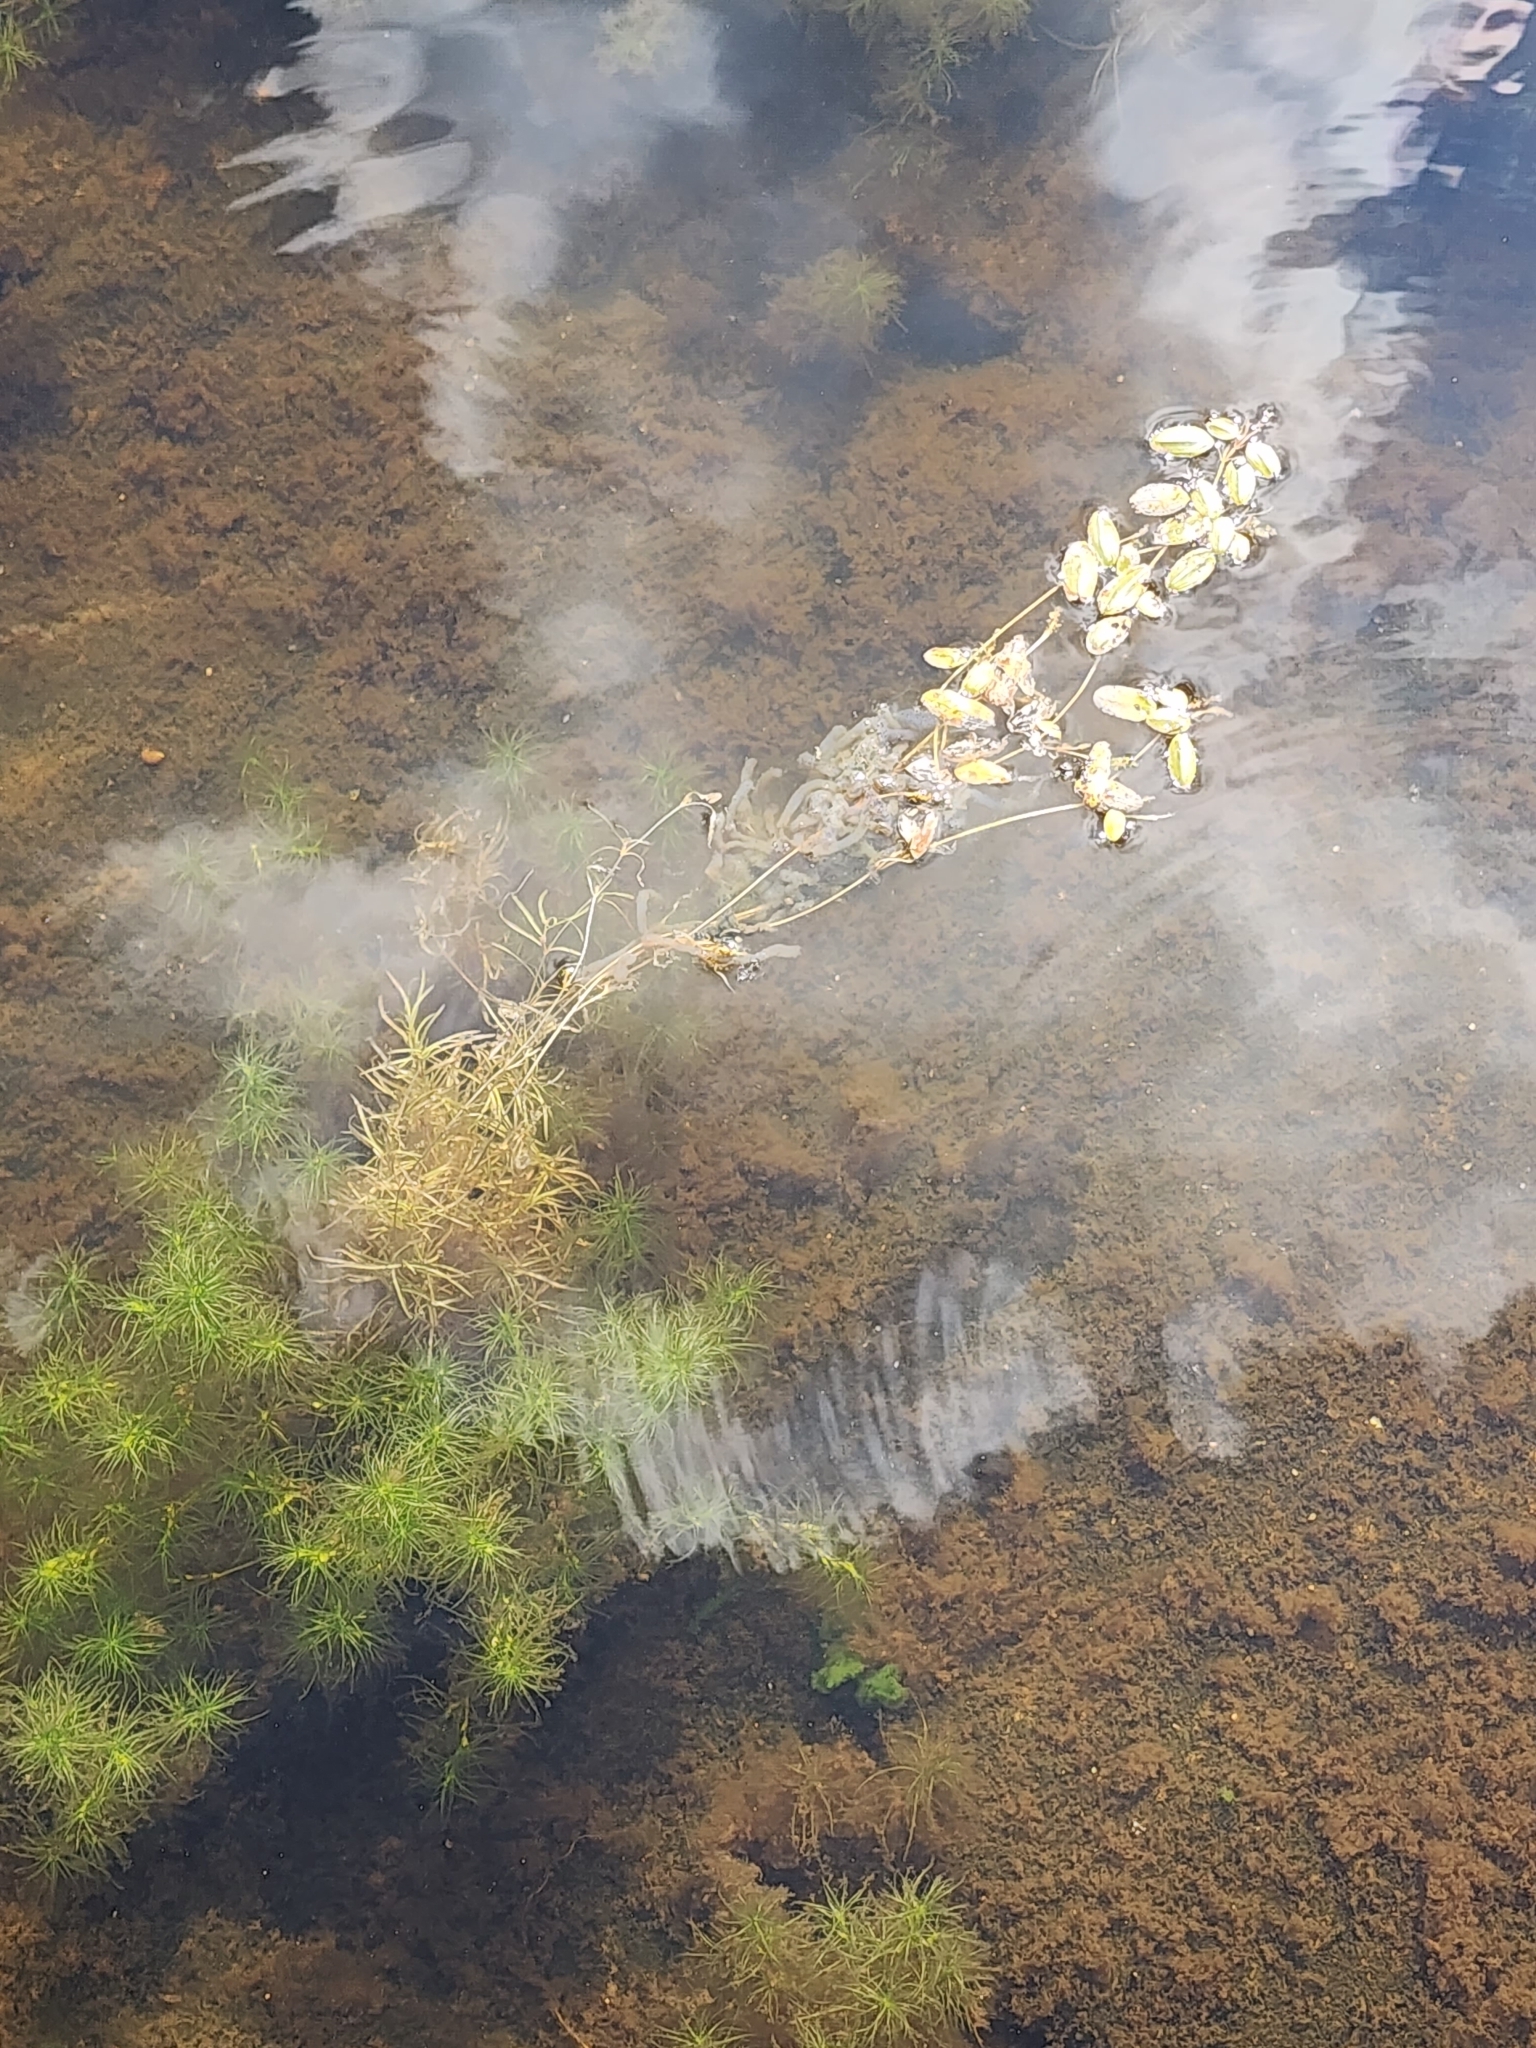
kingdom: Plantae
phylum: Tracheophyta
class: Liliopsida
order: Alismatales
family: Potamogetonaceae
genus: Potamogeton
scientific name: Potamogeton spirillus
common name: Northern snail-seed pondweed
